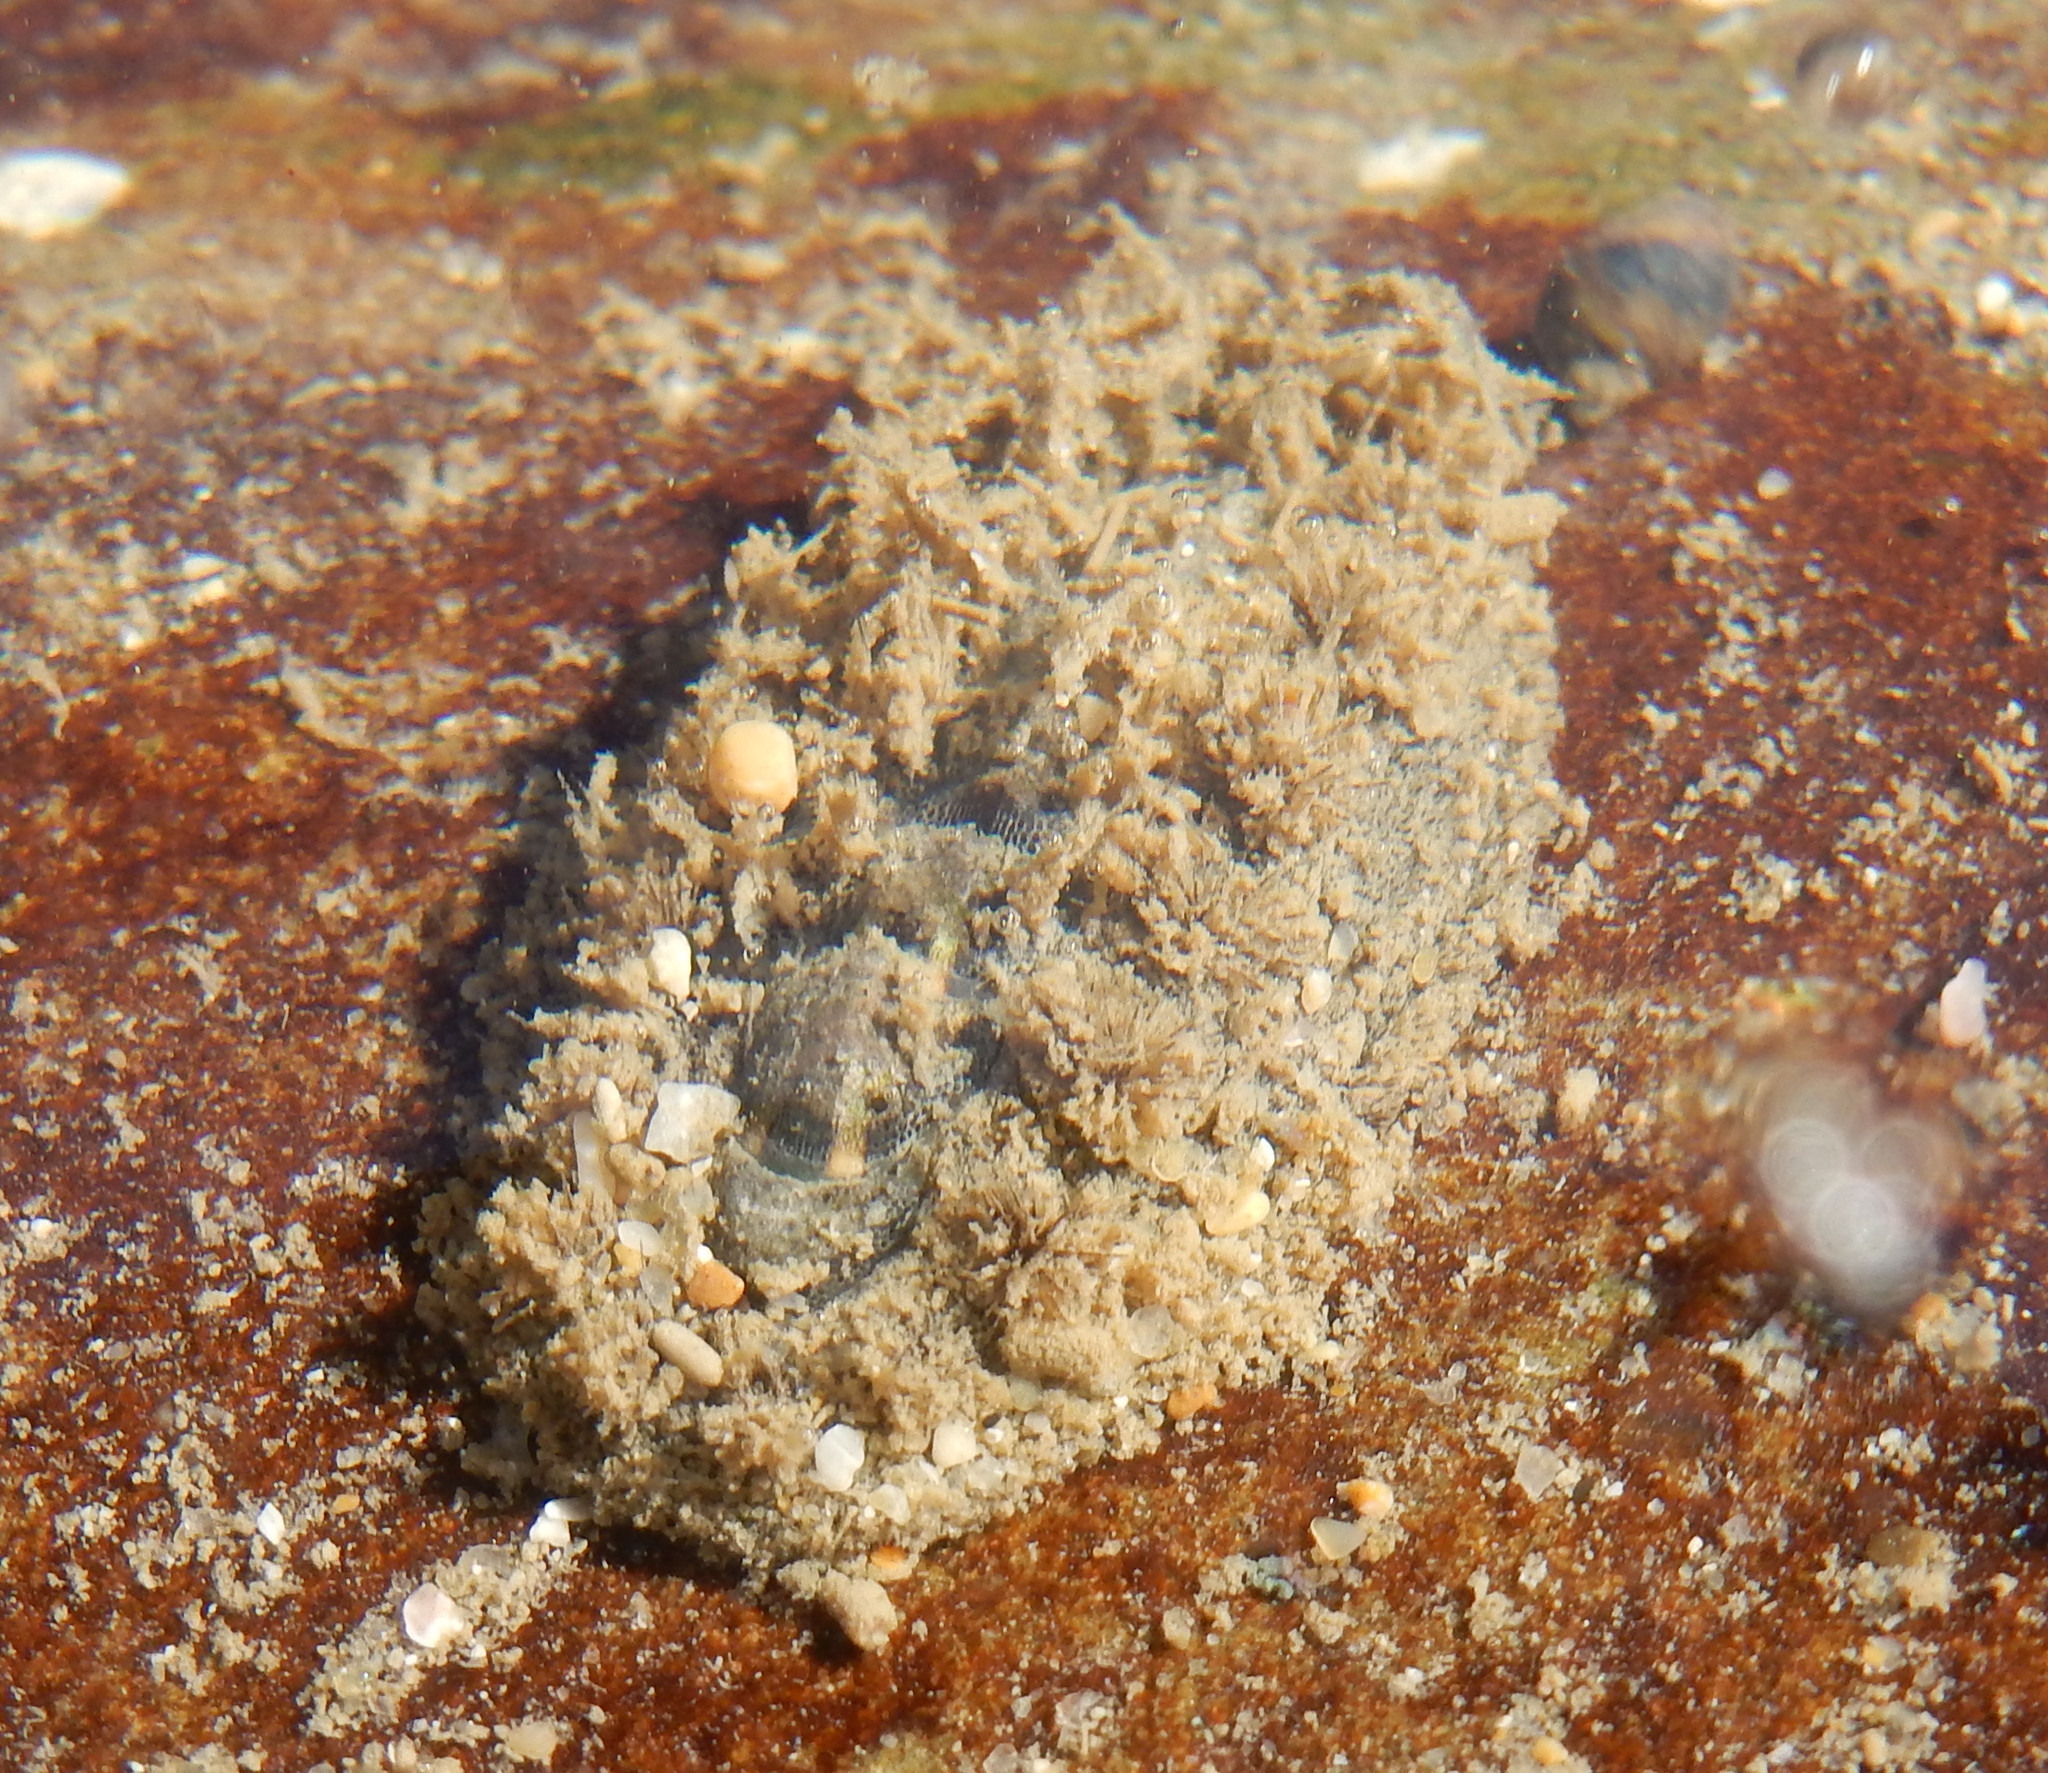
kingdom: Animalia
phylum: Mollusca
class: Polyplacophora
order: Chitonida
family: Acanthochitonidae
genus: Acanthochitona
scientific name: Acanthochitona garnoti
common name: Spiny chiton
